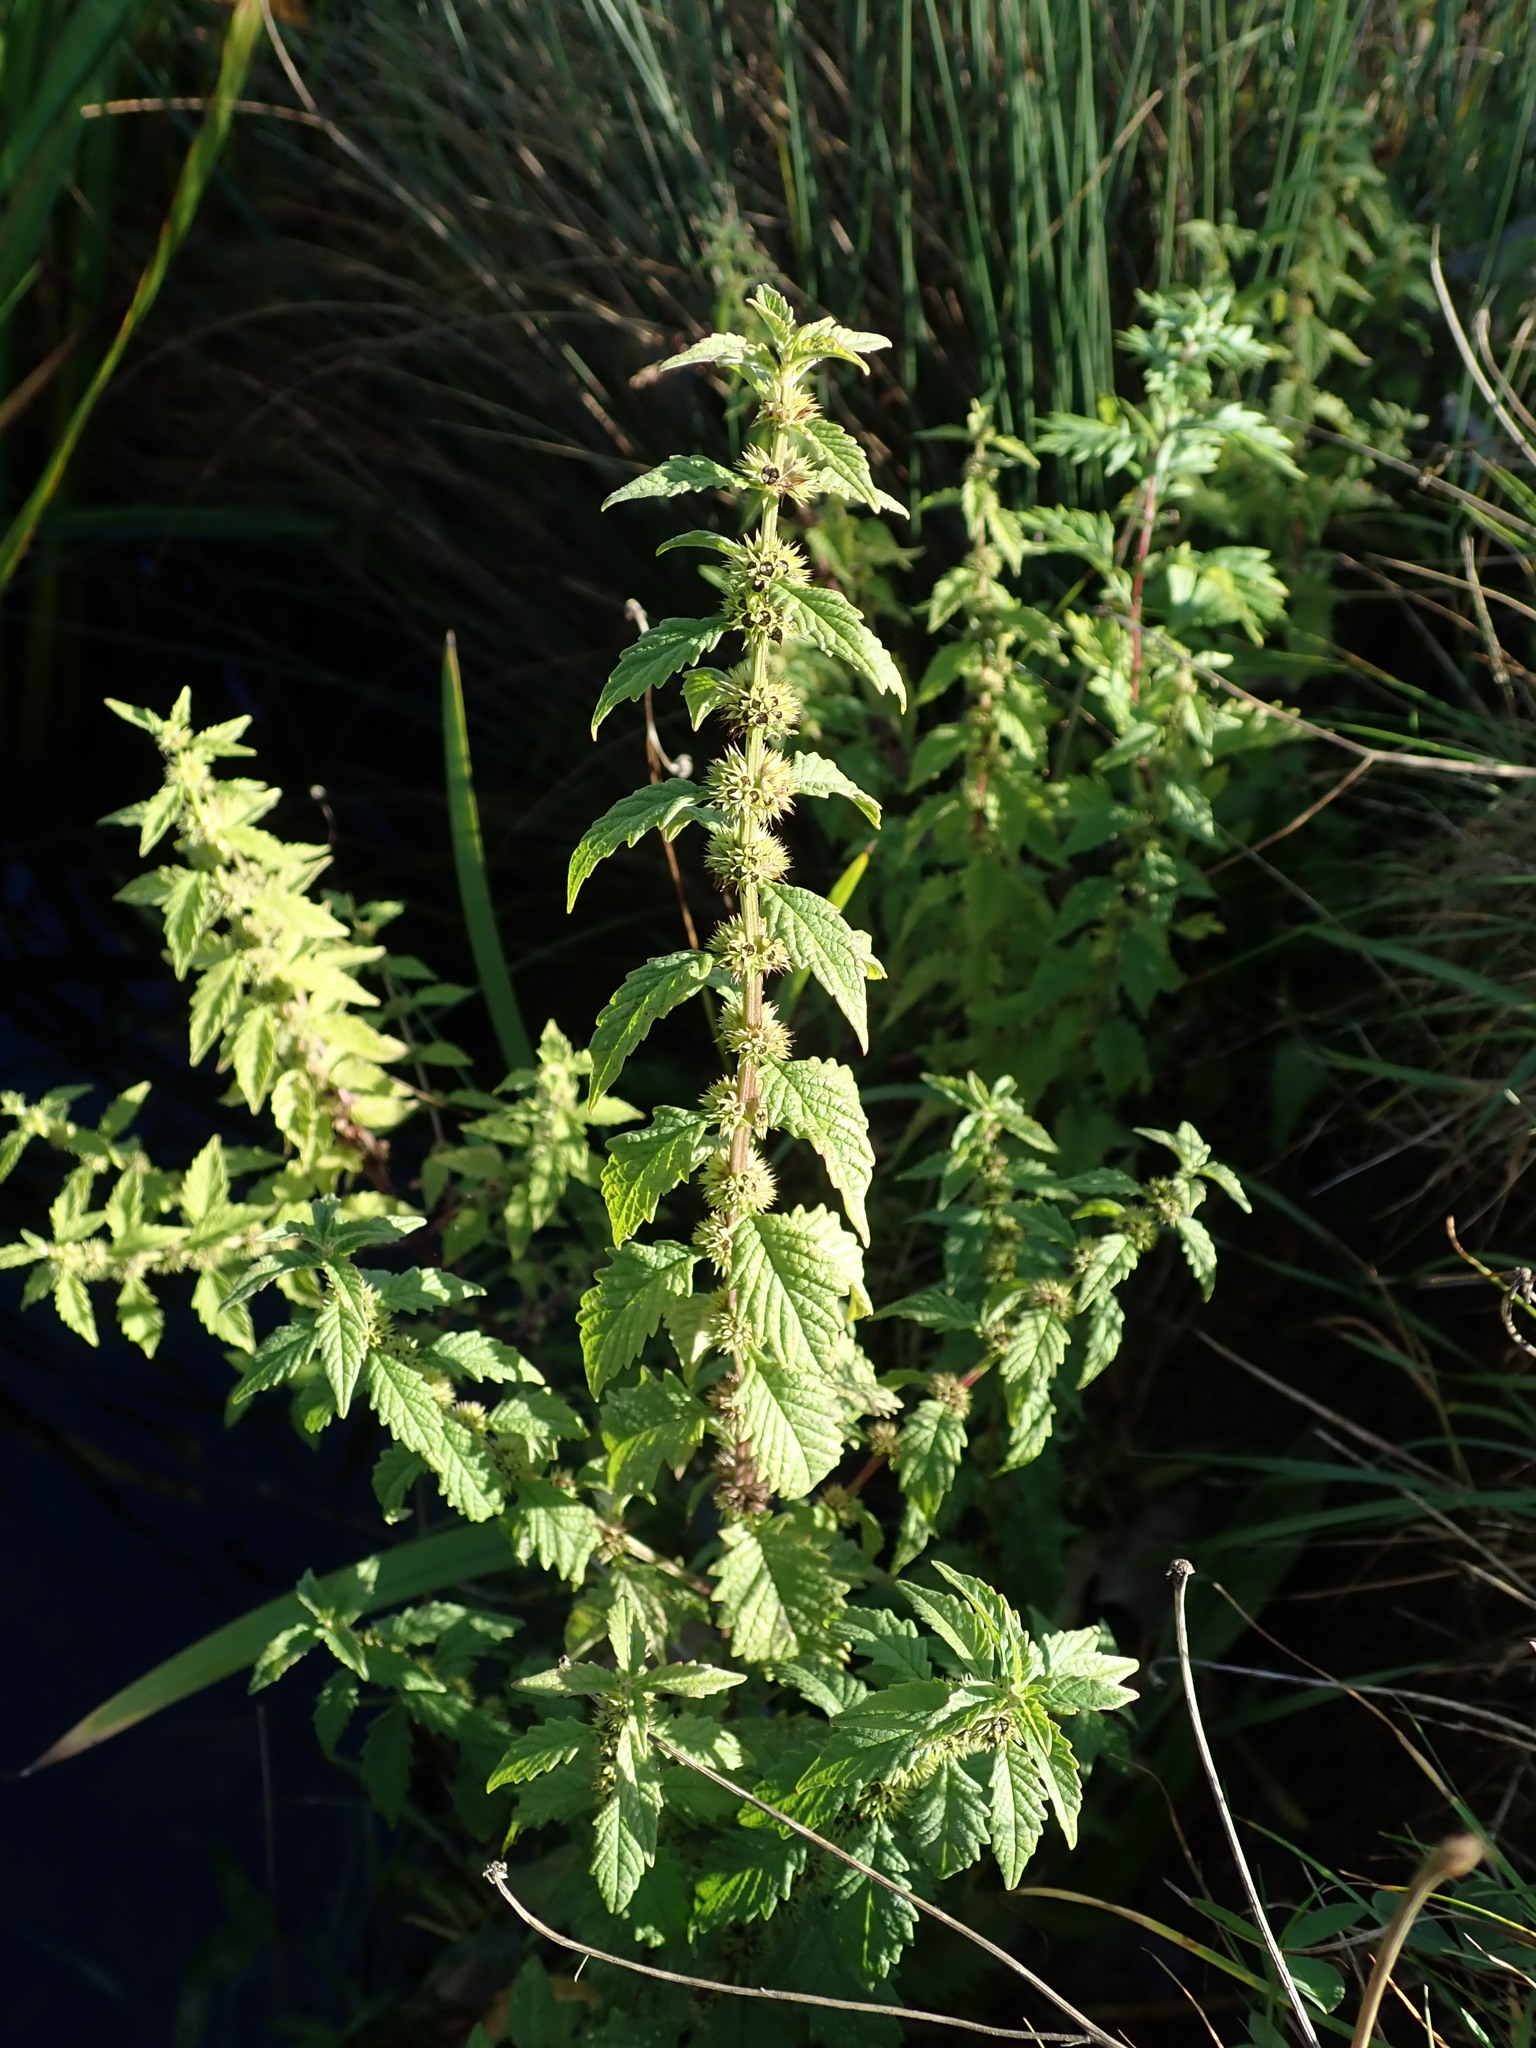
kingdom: Plantae
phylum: Tracheophyta
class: Magnoliopsida
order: Lamiales
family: Lamiaceae
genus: Lycopus
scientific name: Lycopus europaeus
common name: European bugleweed
